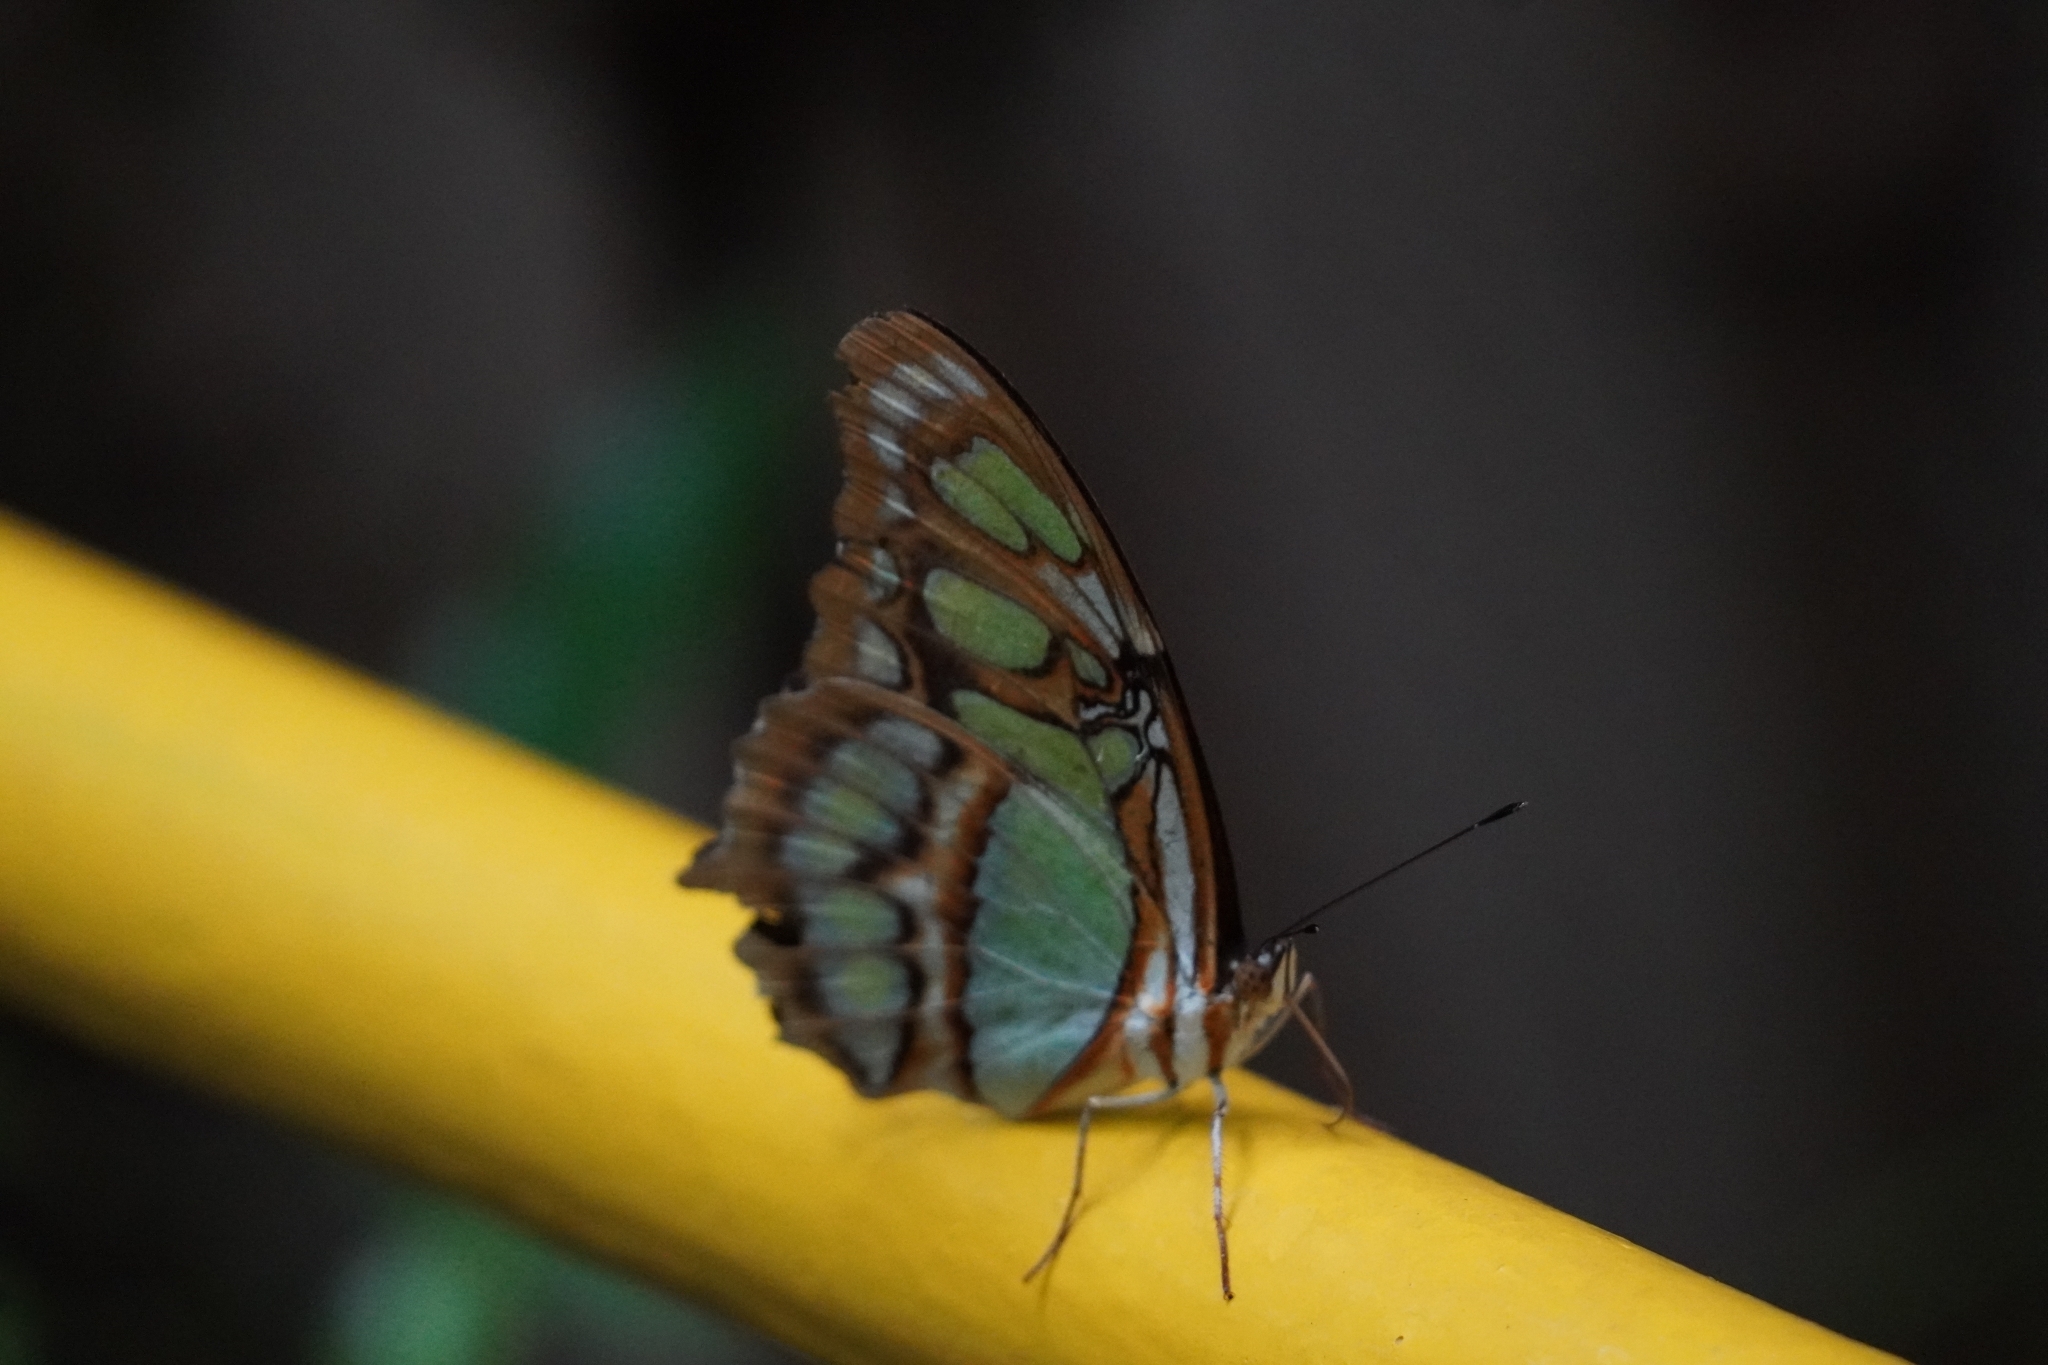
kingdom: Animalia
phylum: Arthropoda
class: Insecta
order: Lepidoptera
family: Nymphalidae
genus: Siproeta
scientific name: Siproeta stelenes
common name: Malachite
